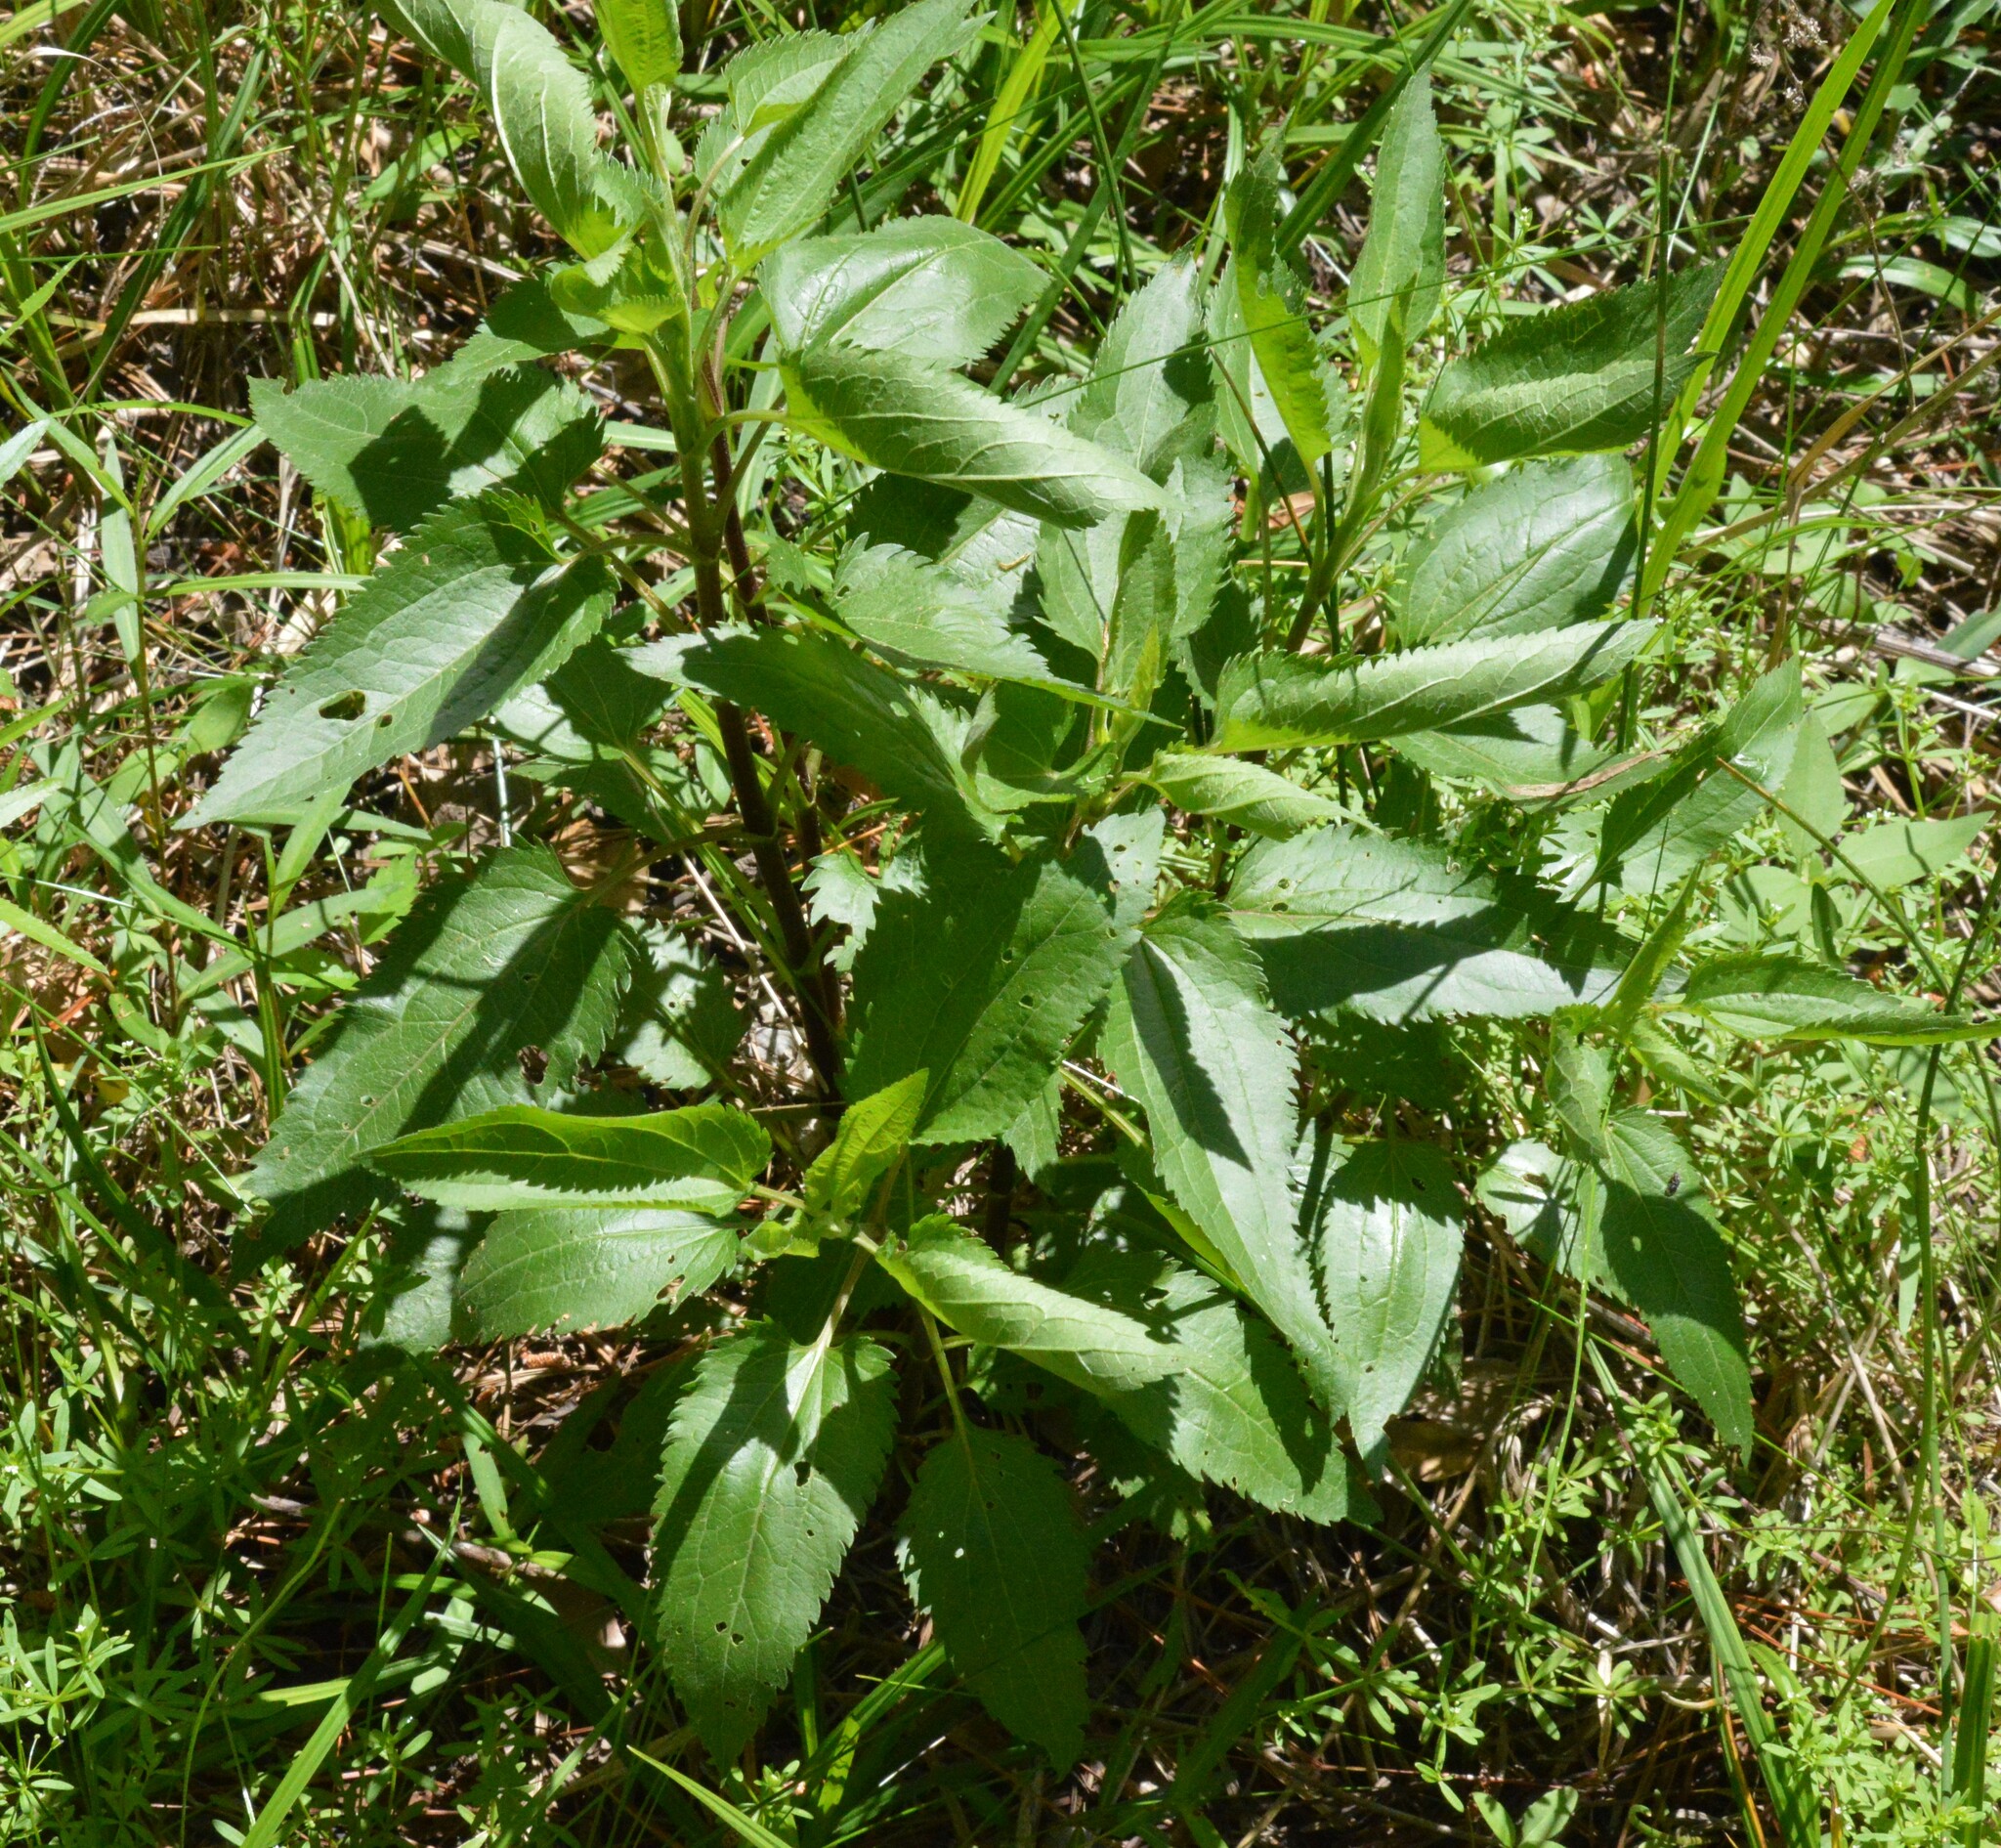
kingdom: Plantae
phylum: Tracheophyta
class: Magnoliopsida
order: Asterales
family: Asteraceae
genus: Eupatorium
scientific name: Eupatorium serotinum
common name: Late boneset
